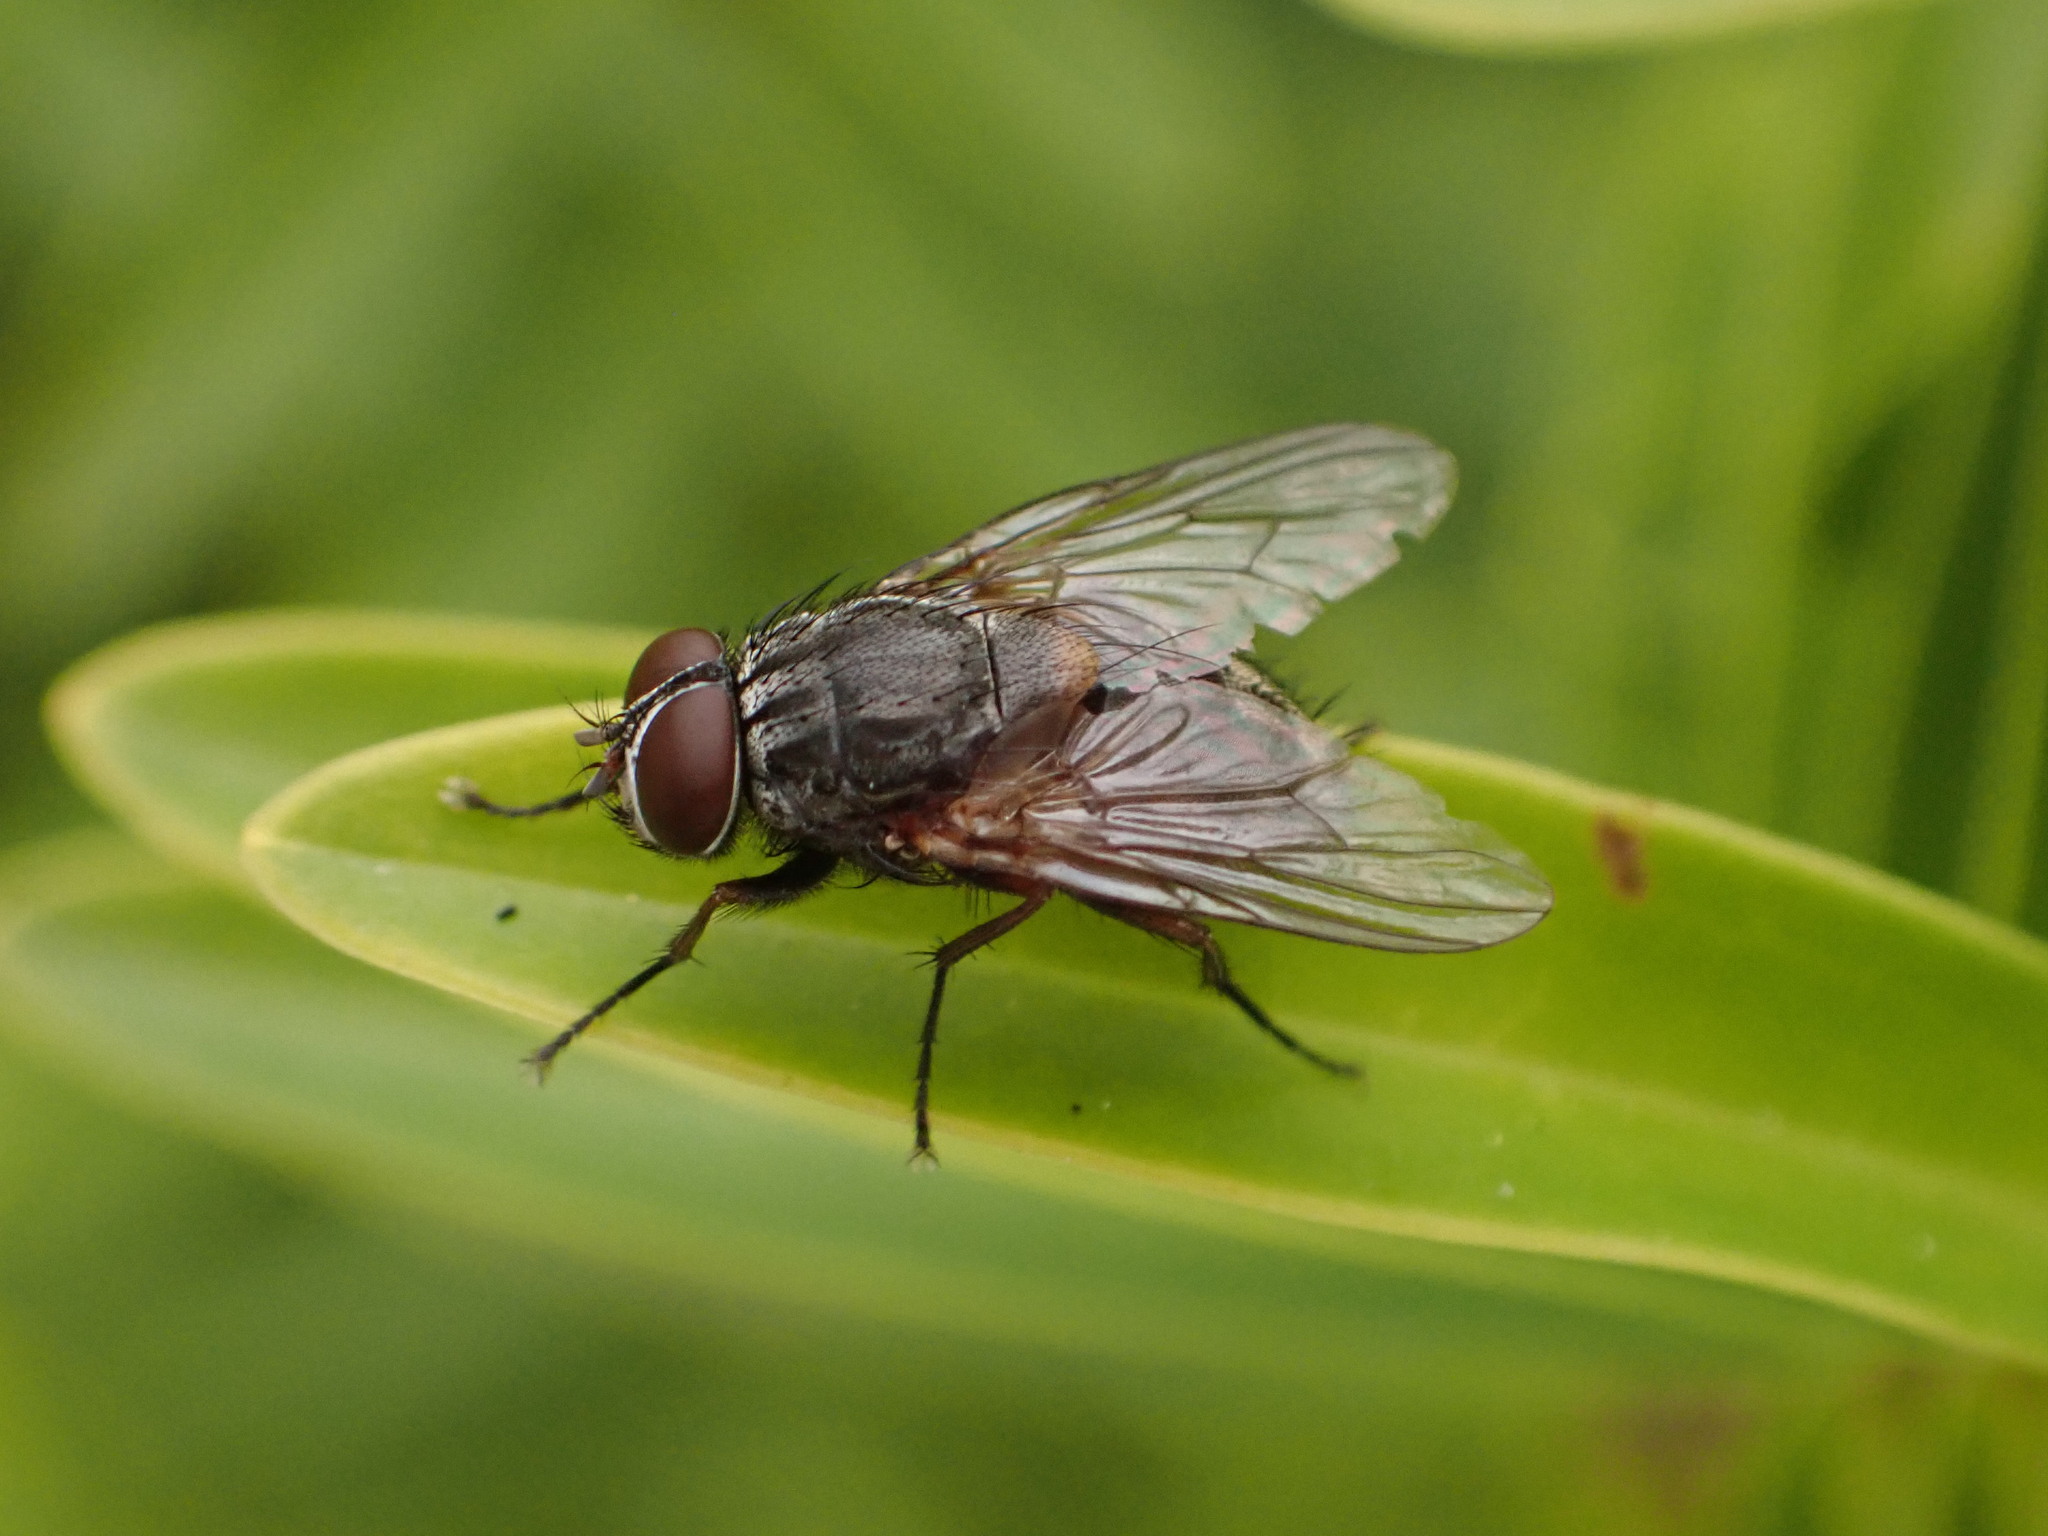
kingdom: Animalia
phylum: Arthropoda
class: Insecta
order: Diptera
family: Muscidae
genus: Muscina
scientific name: Muscina stabulans
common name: False stable fly
